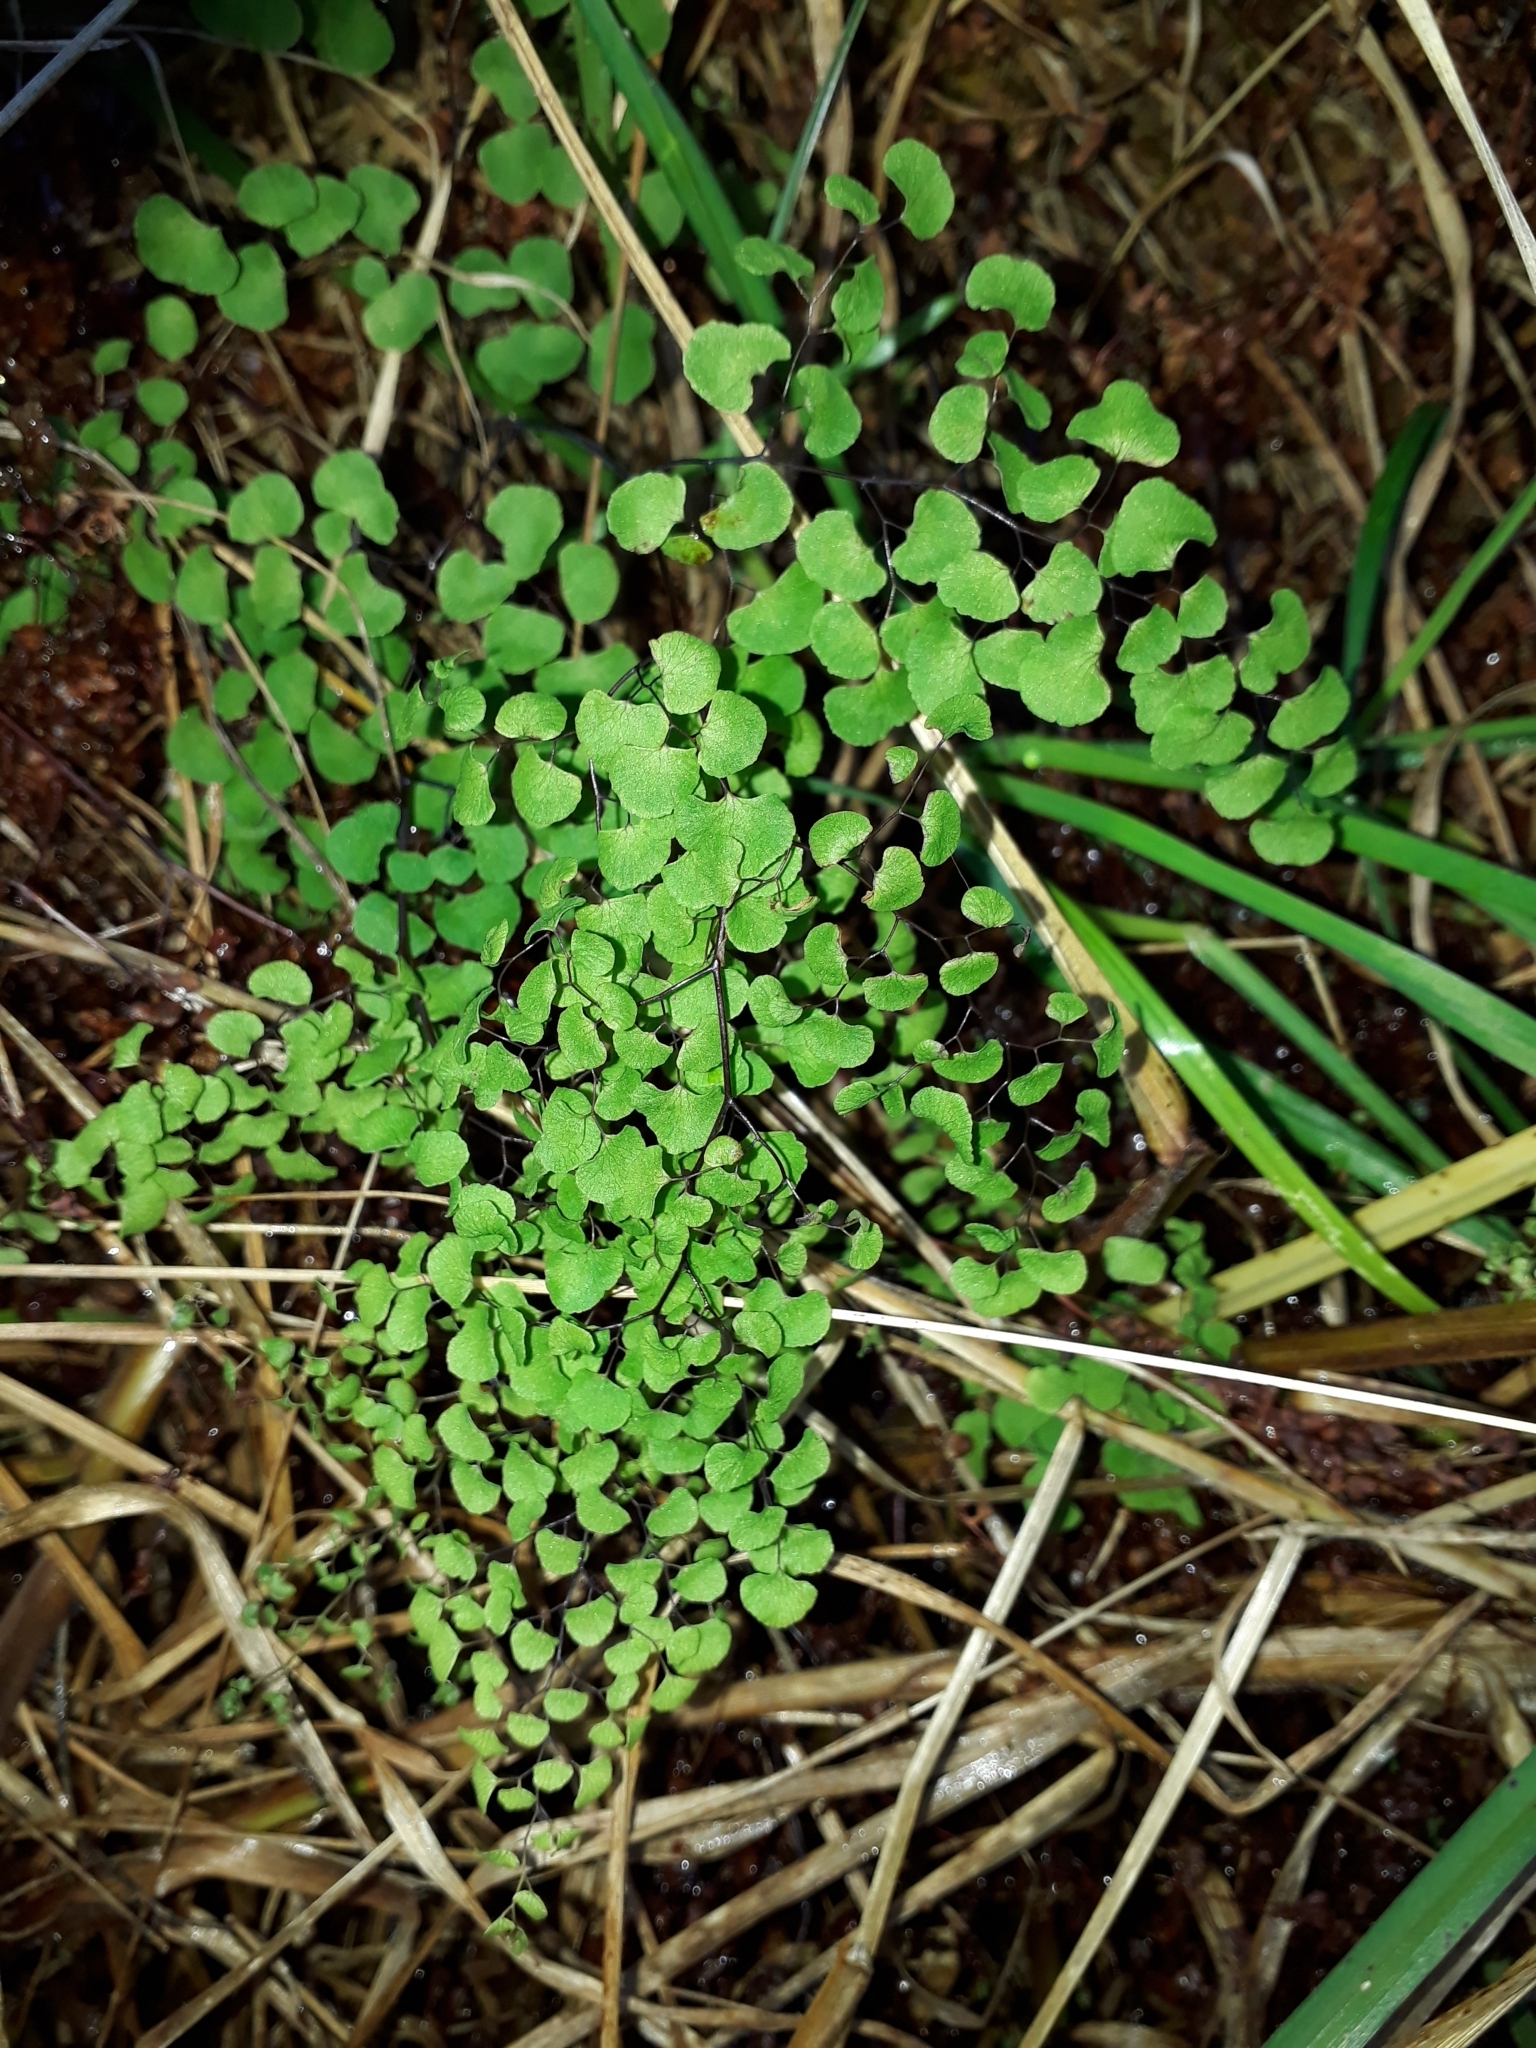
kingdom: Plantae
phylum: Tracheophyta
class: Polypodiopsida
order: Polypodiales
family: Pteridaceae
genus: Adiantum
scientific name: Adiantum aethiopicum
